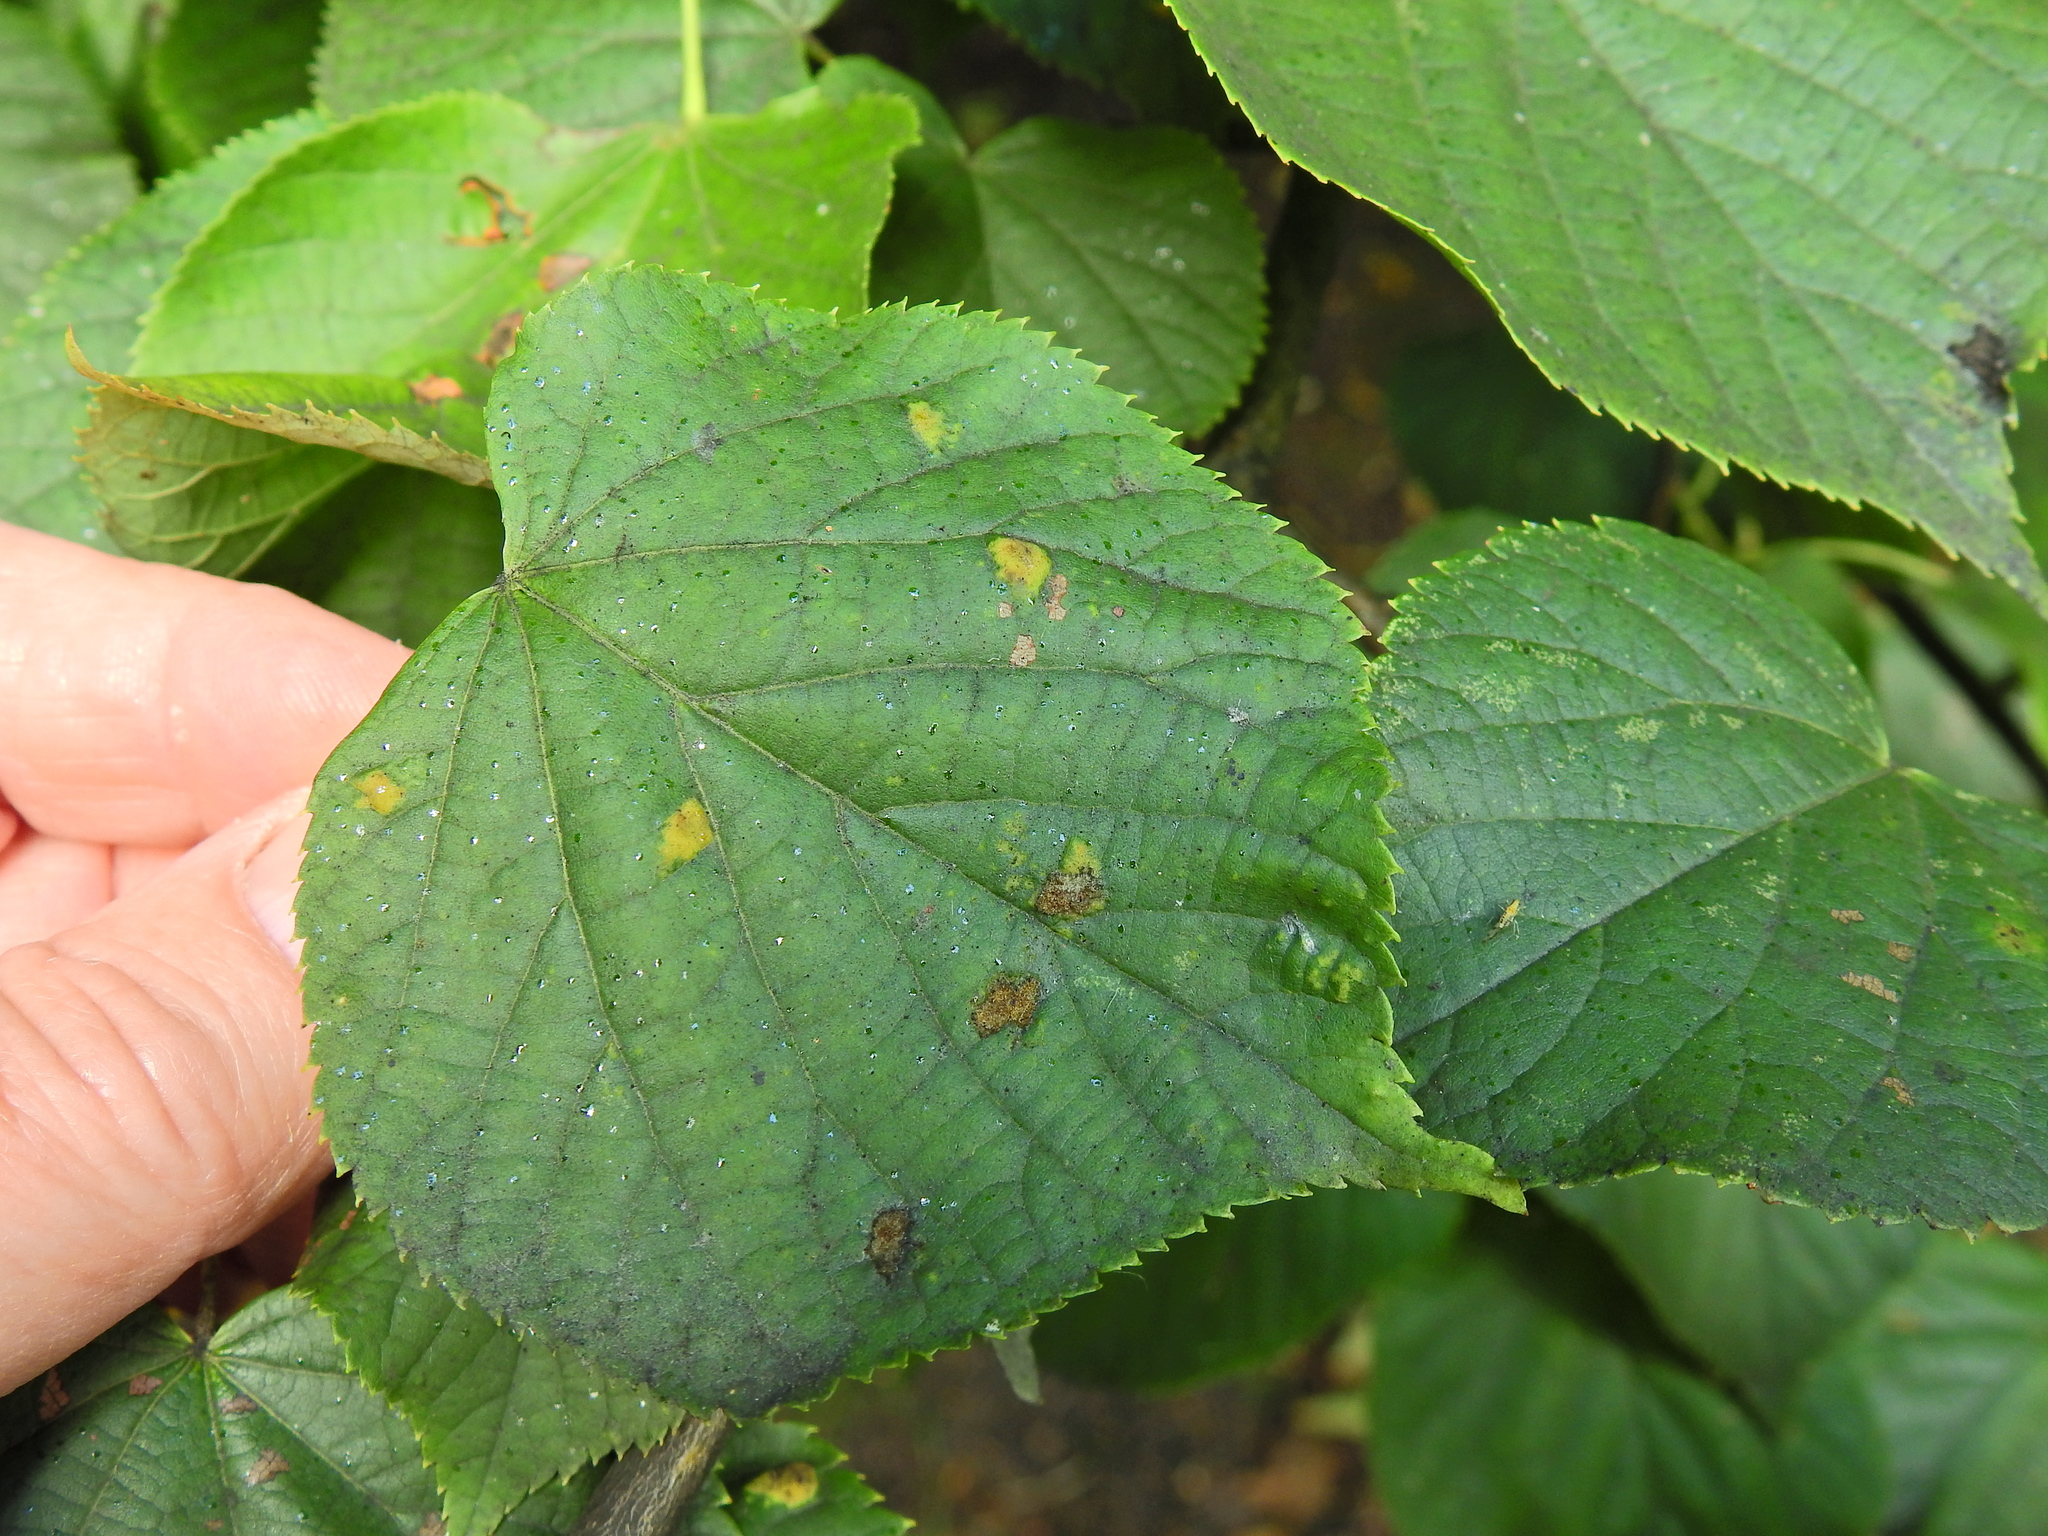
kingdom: Animalia
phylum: Arthropoda
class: Arachnida
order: Trombidiformes
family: Eriophyidae
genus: Eriophyes
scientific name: Eriophyes leiosoma
